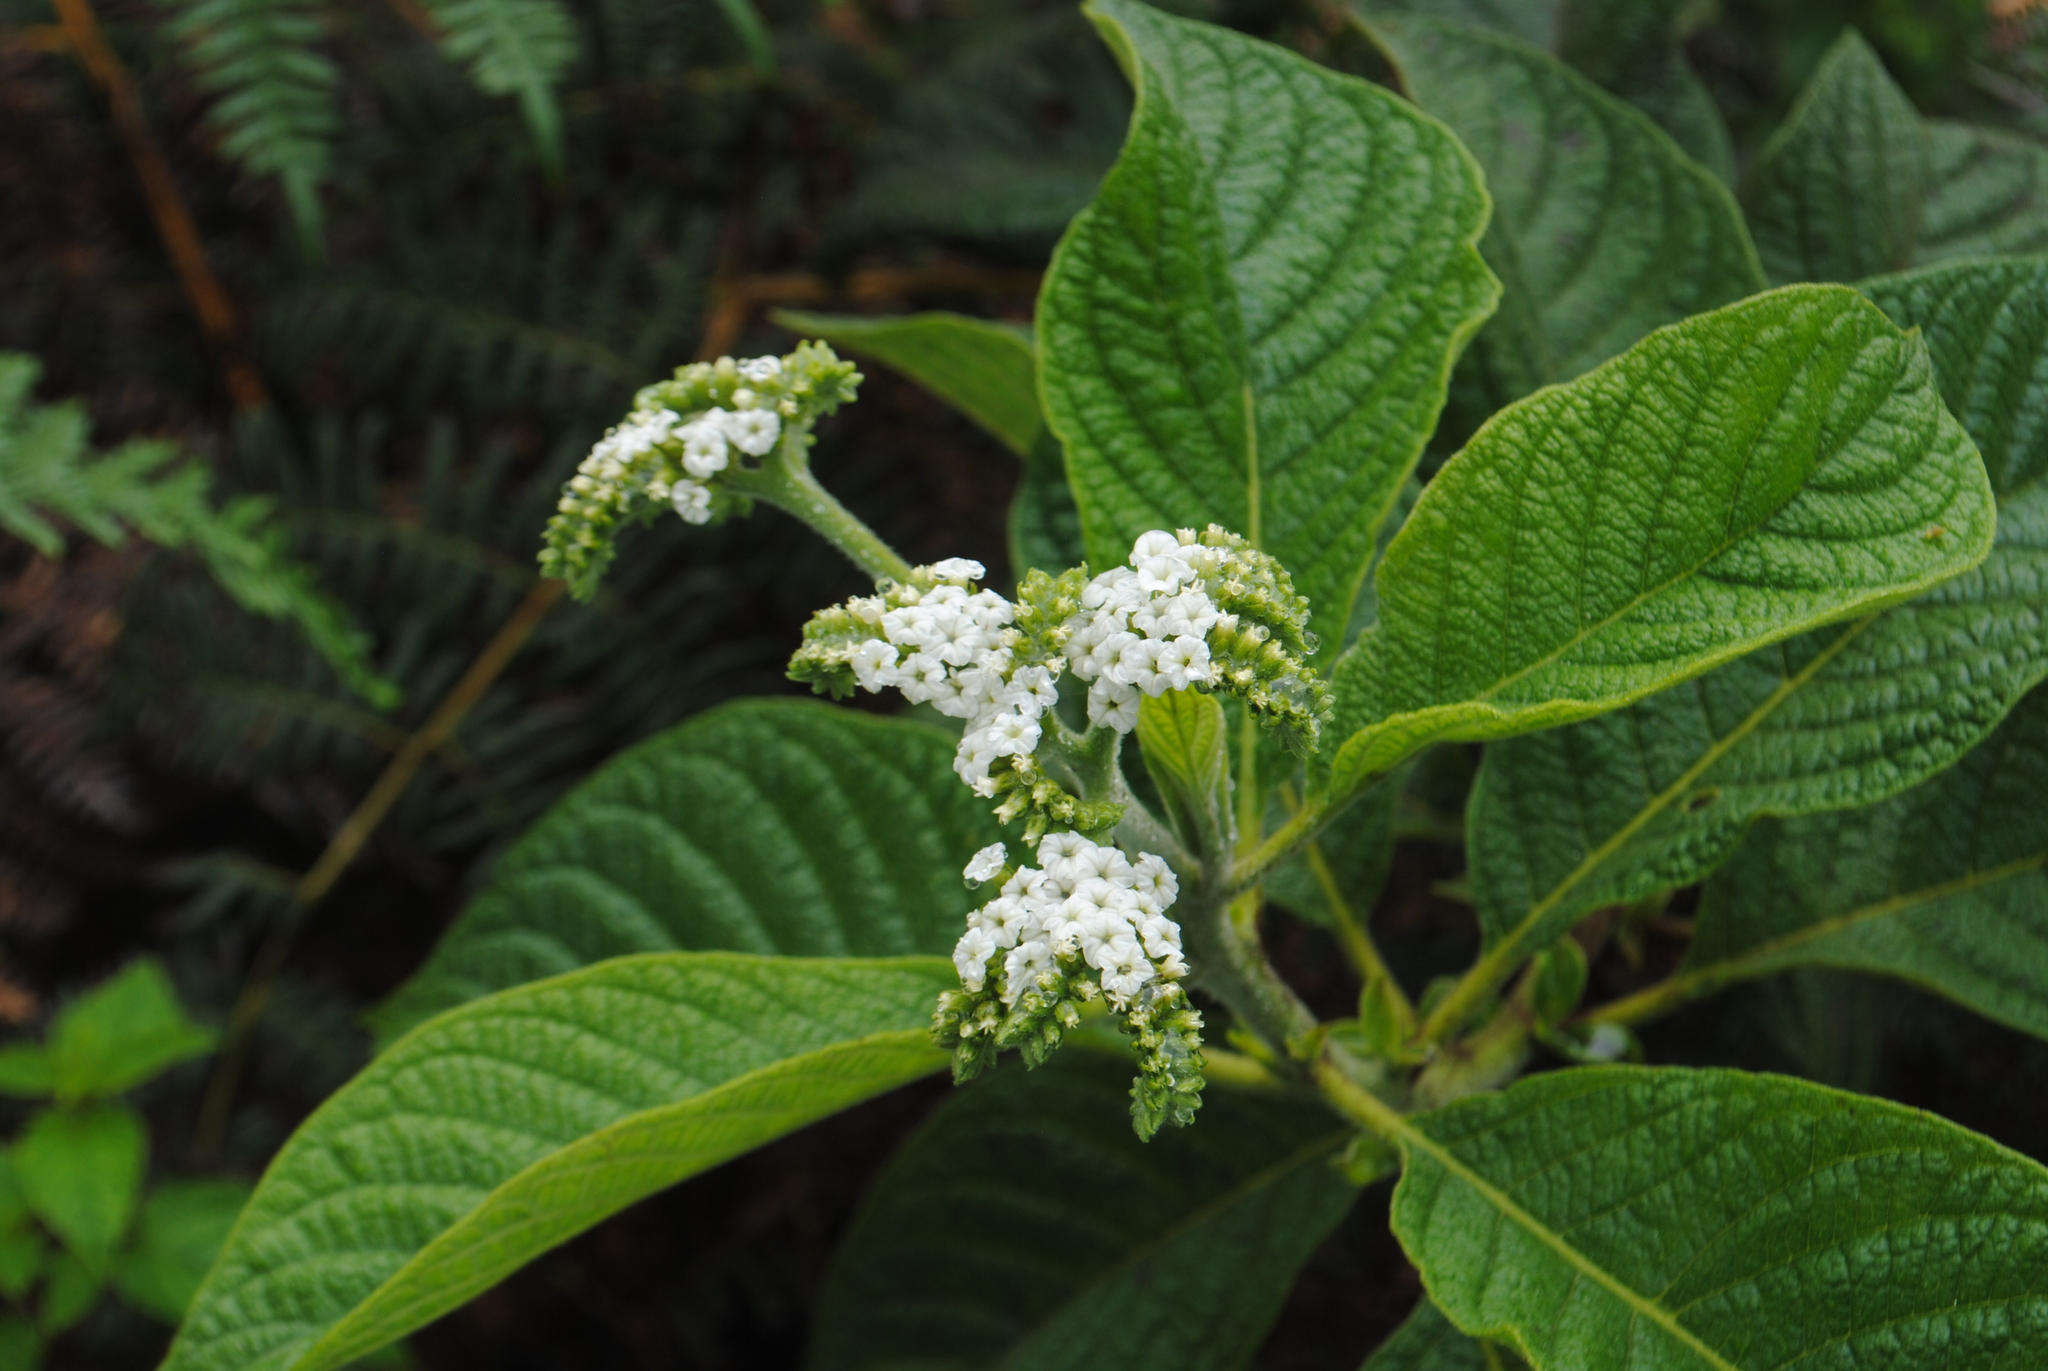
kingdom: Plantae
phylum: Tracheophyta
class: Magnoliopsida
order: Boraginales
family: Heliotropiaceae
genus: Tournefortia
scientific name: Tournefortia rufosericea
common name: Rufous-haired tournefortia
